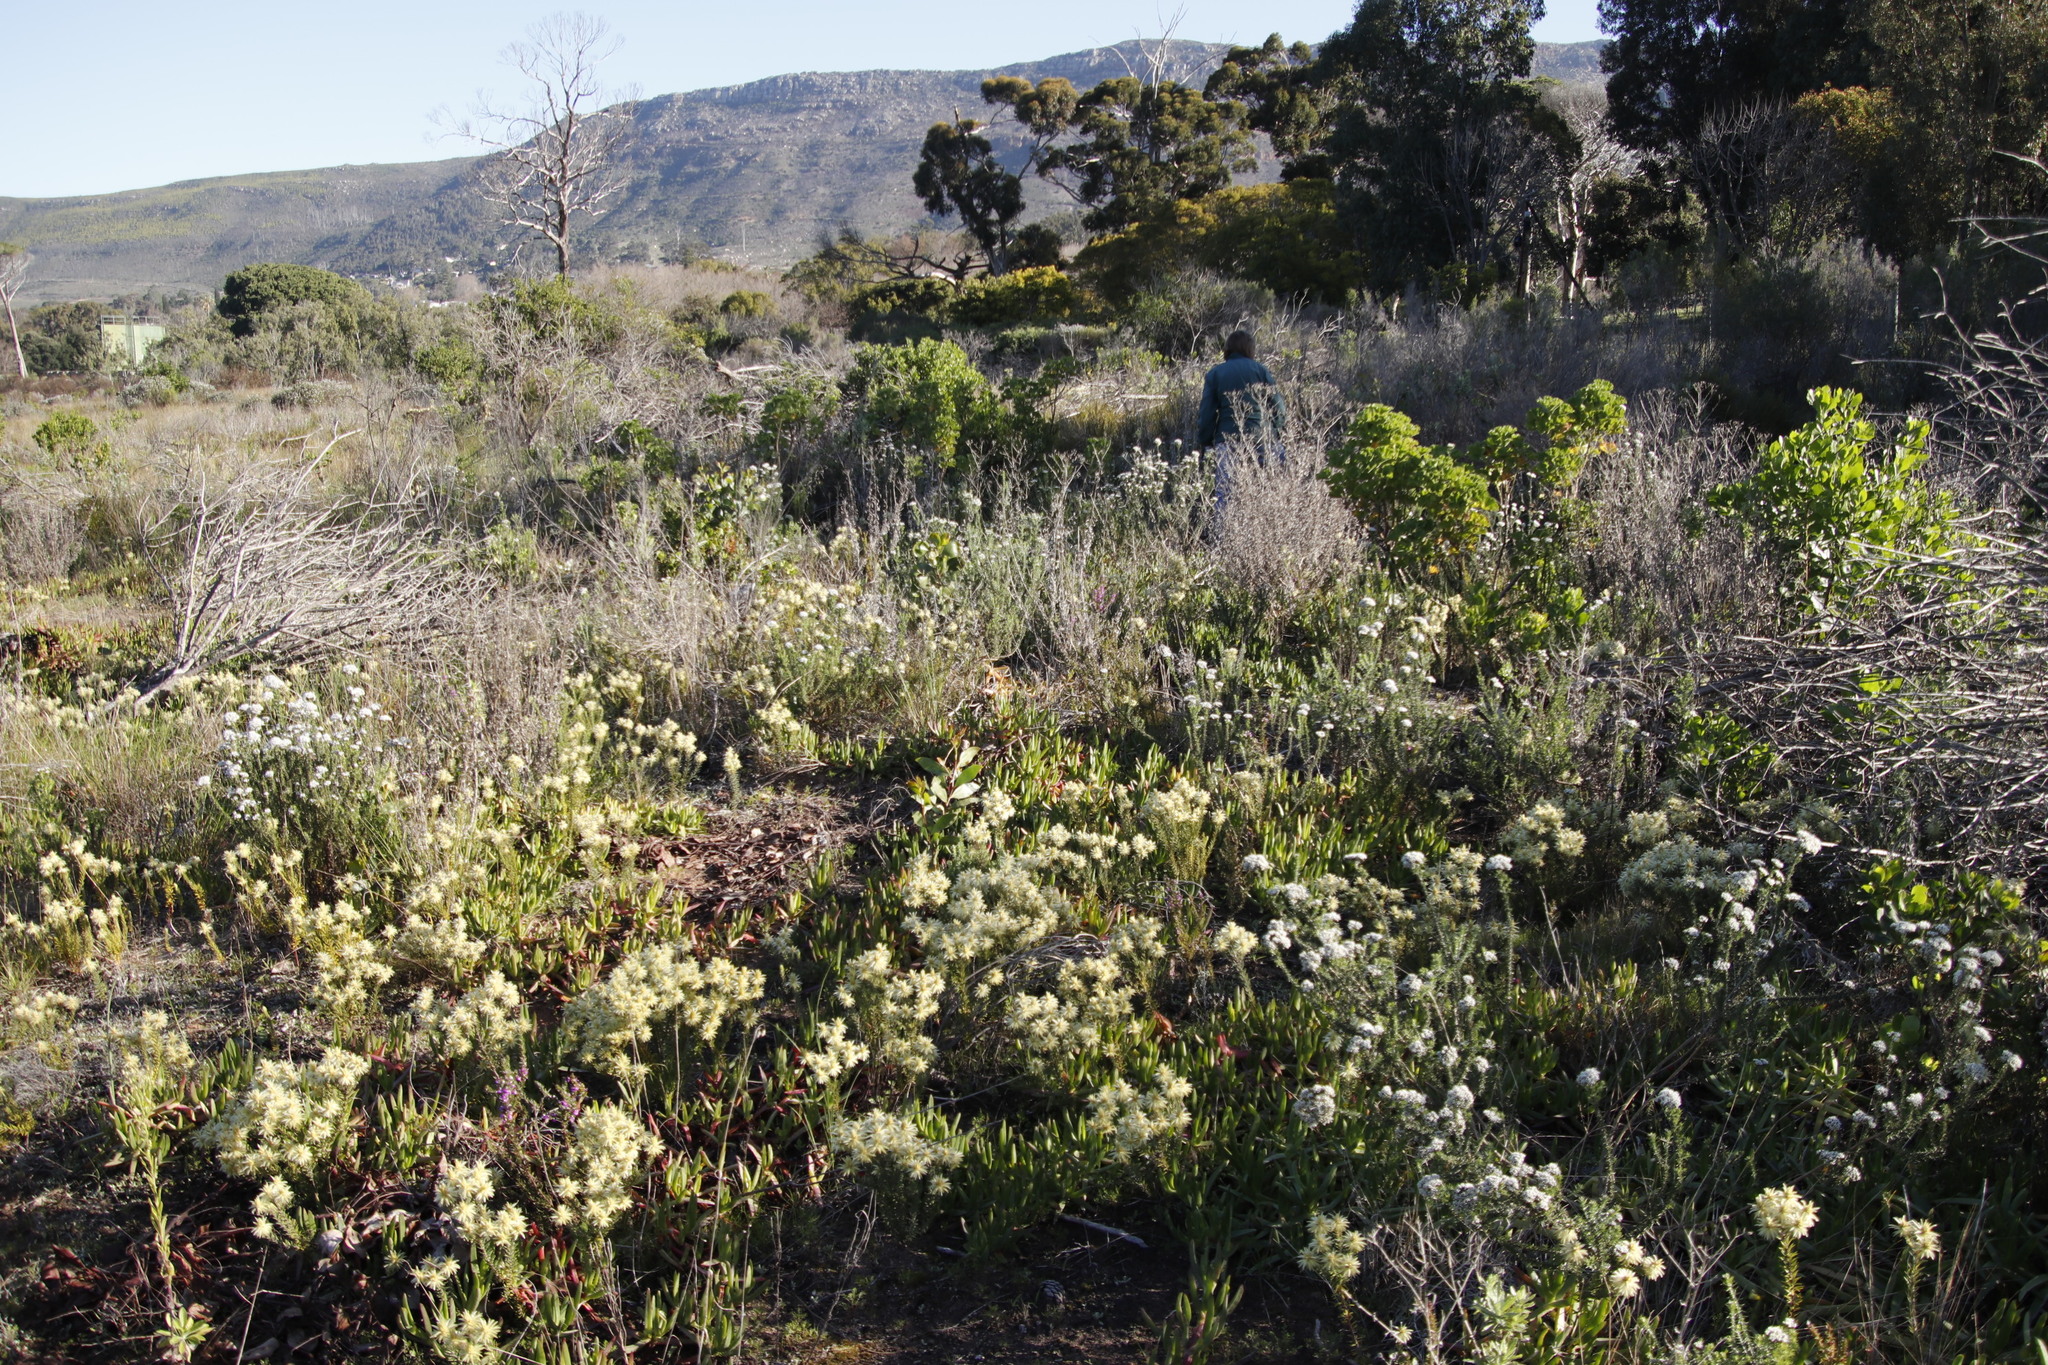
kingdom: Plantae
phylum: Tracheophyta
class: Magnoliopsida
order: Rosales
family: Rhamnaceae
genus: Phylica
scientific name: Phylica plumosa
